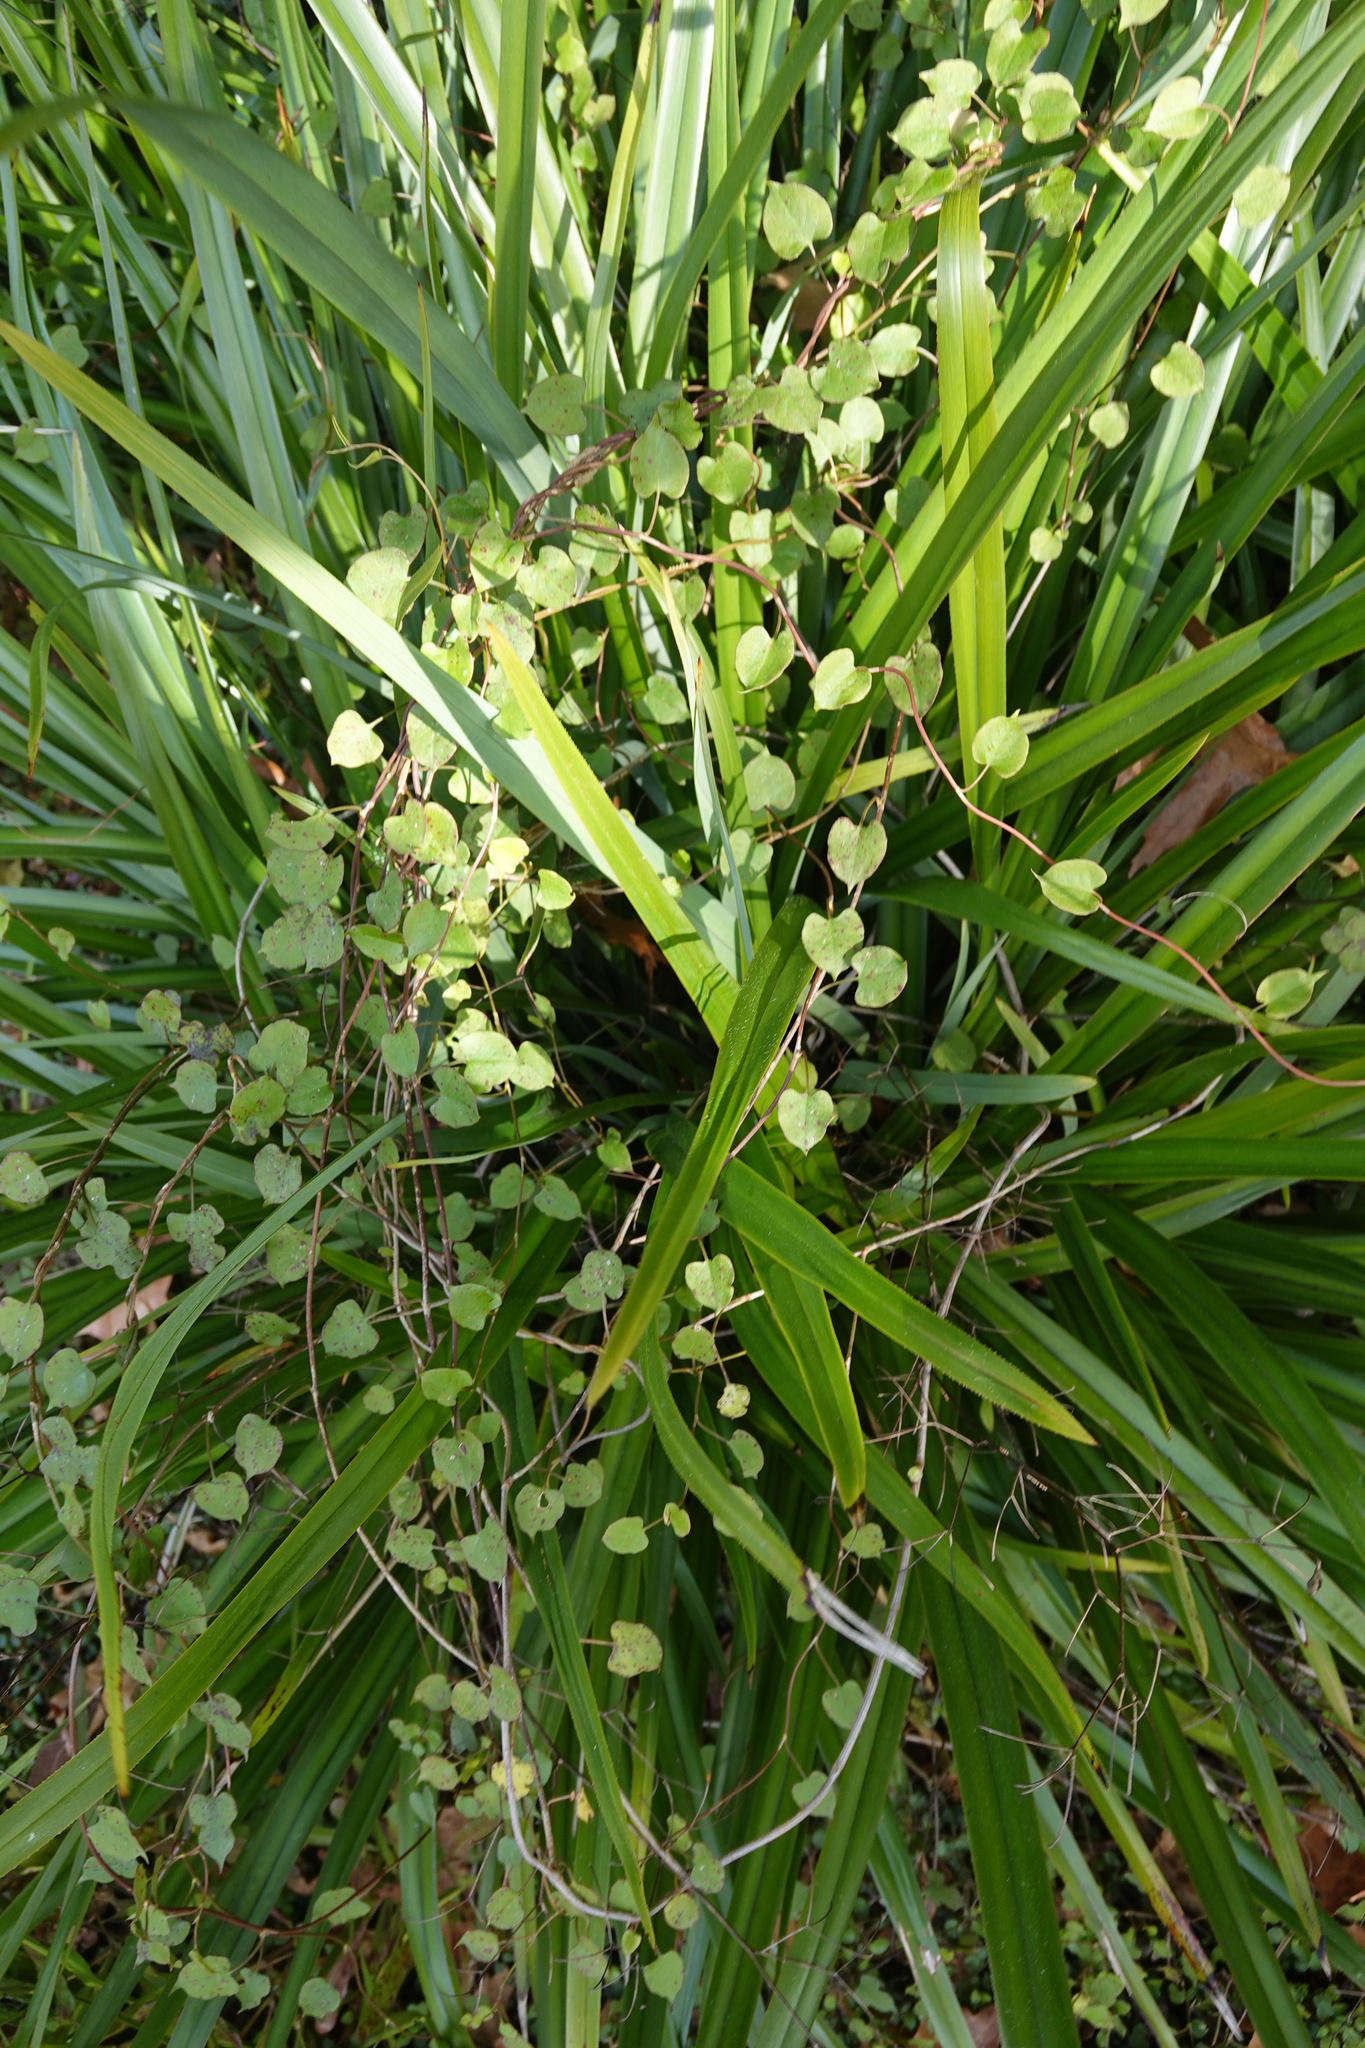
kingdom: Plantae
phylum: Tracheophyta
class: Magnoliopsida
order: Caryophyllales
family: Polygonaceae
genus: Muehlenbeckia
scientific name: Muehlenbeckia australis
